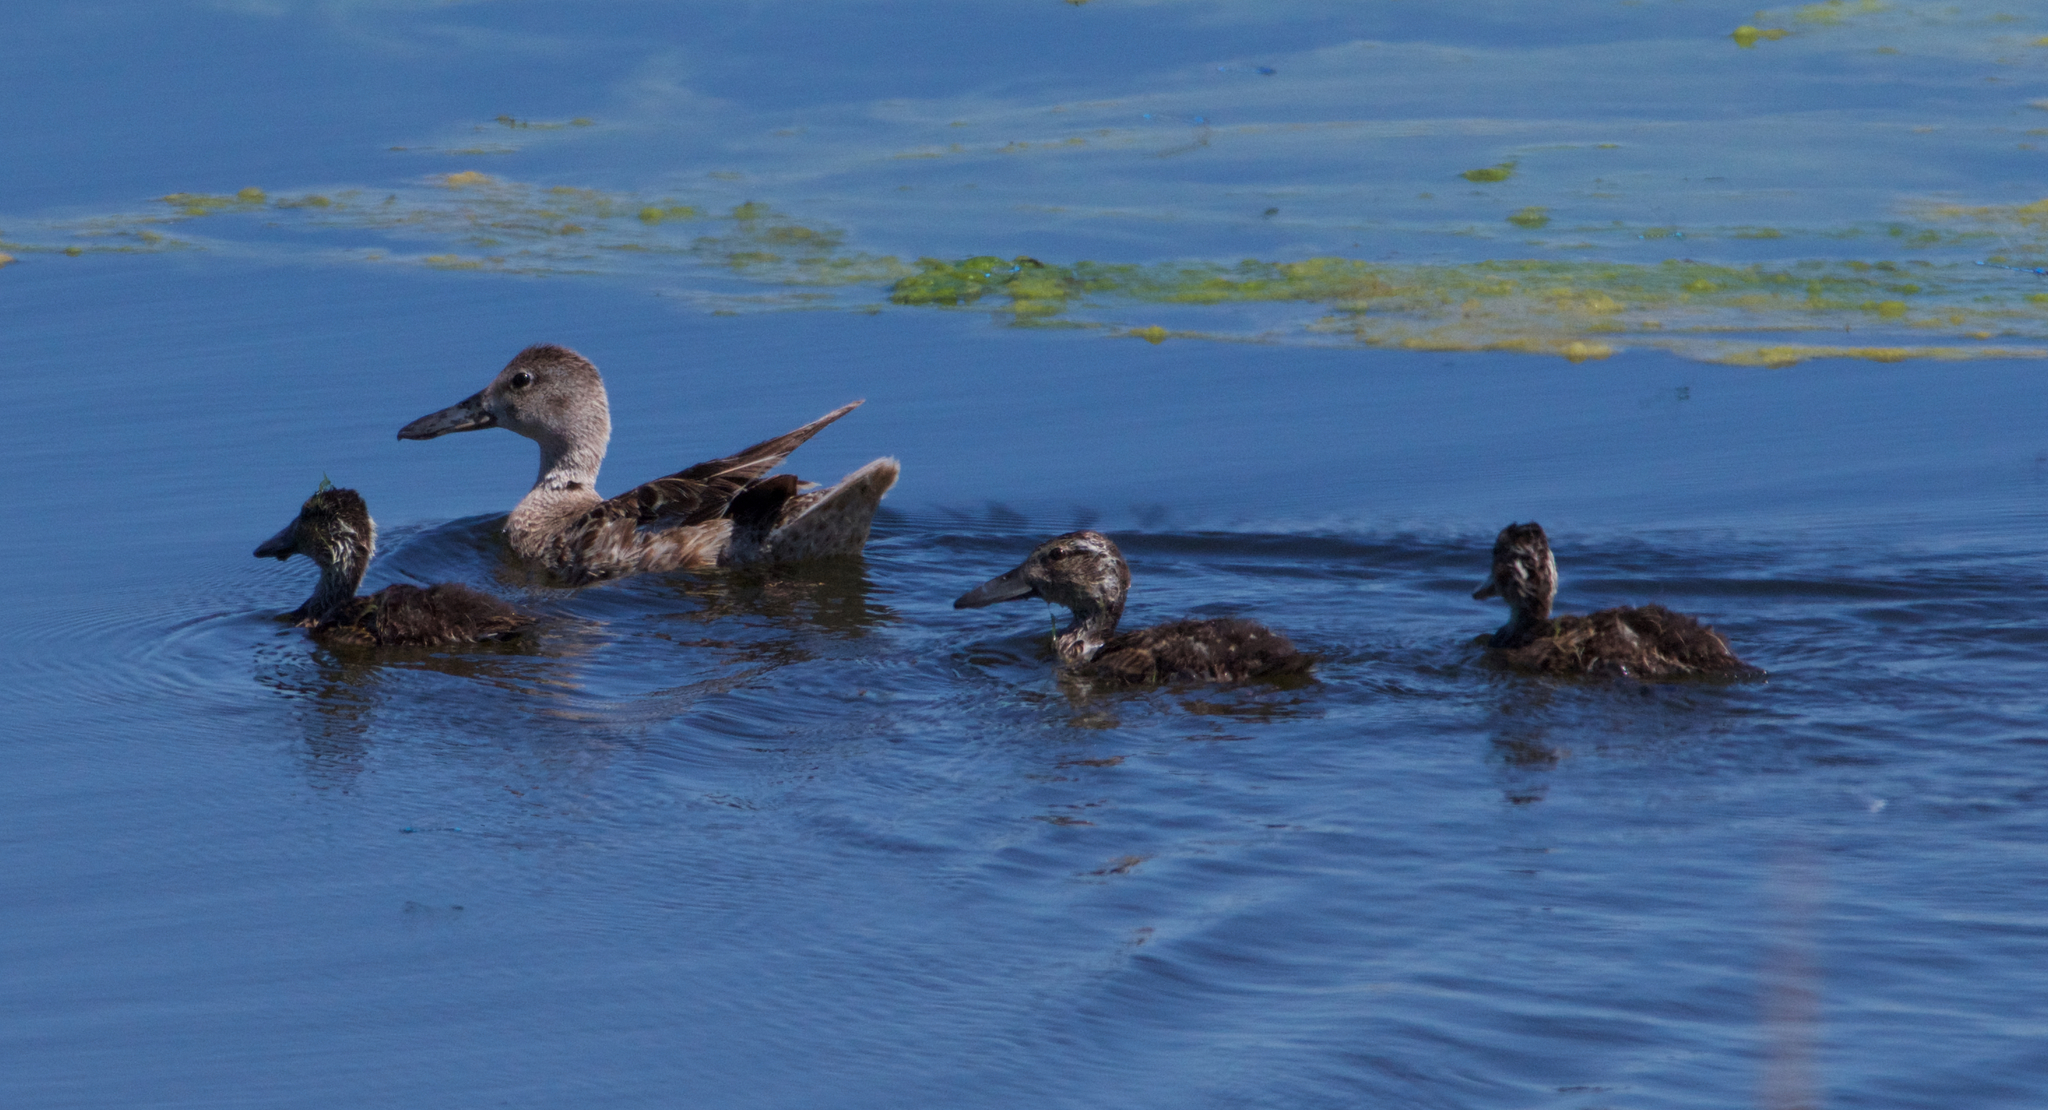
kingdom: Animalia
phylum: Chordata
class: Aves
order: Anseriformes
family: Anatidae
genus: Spatula
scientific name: Spatula cyanoptera
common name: Cinnamon teal
